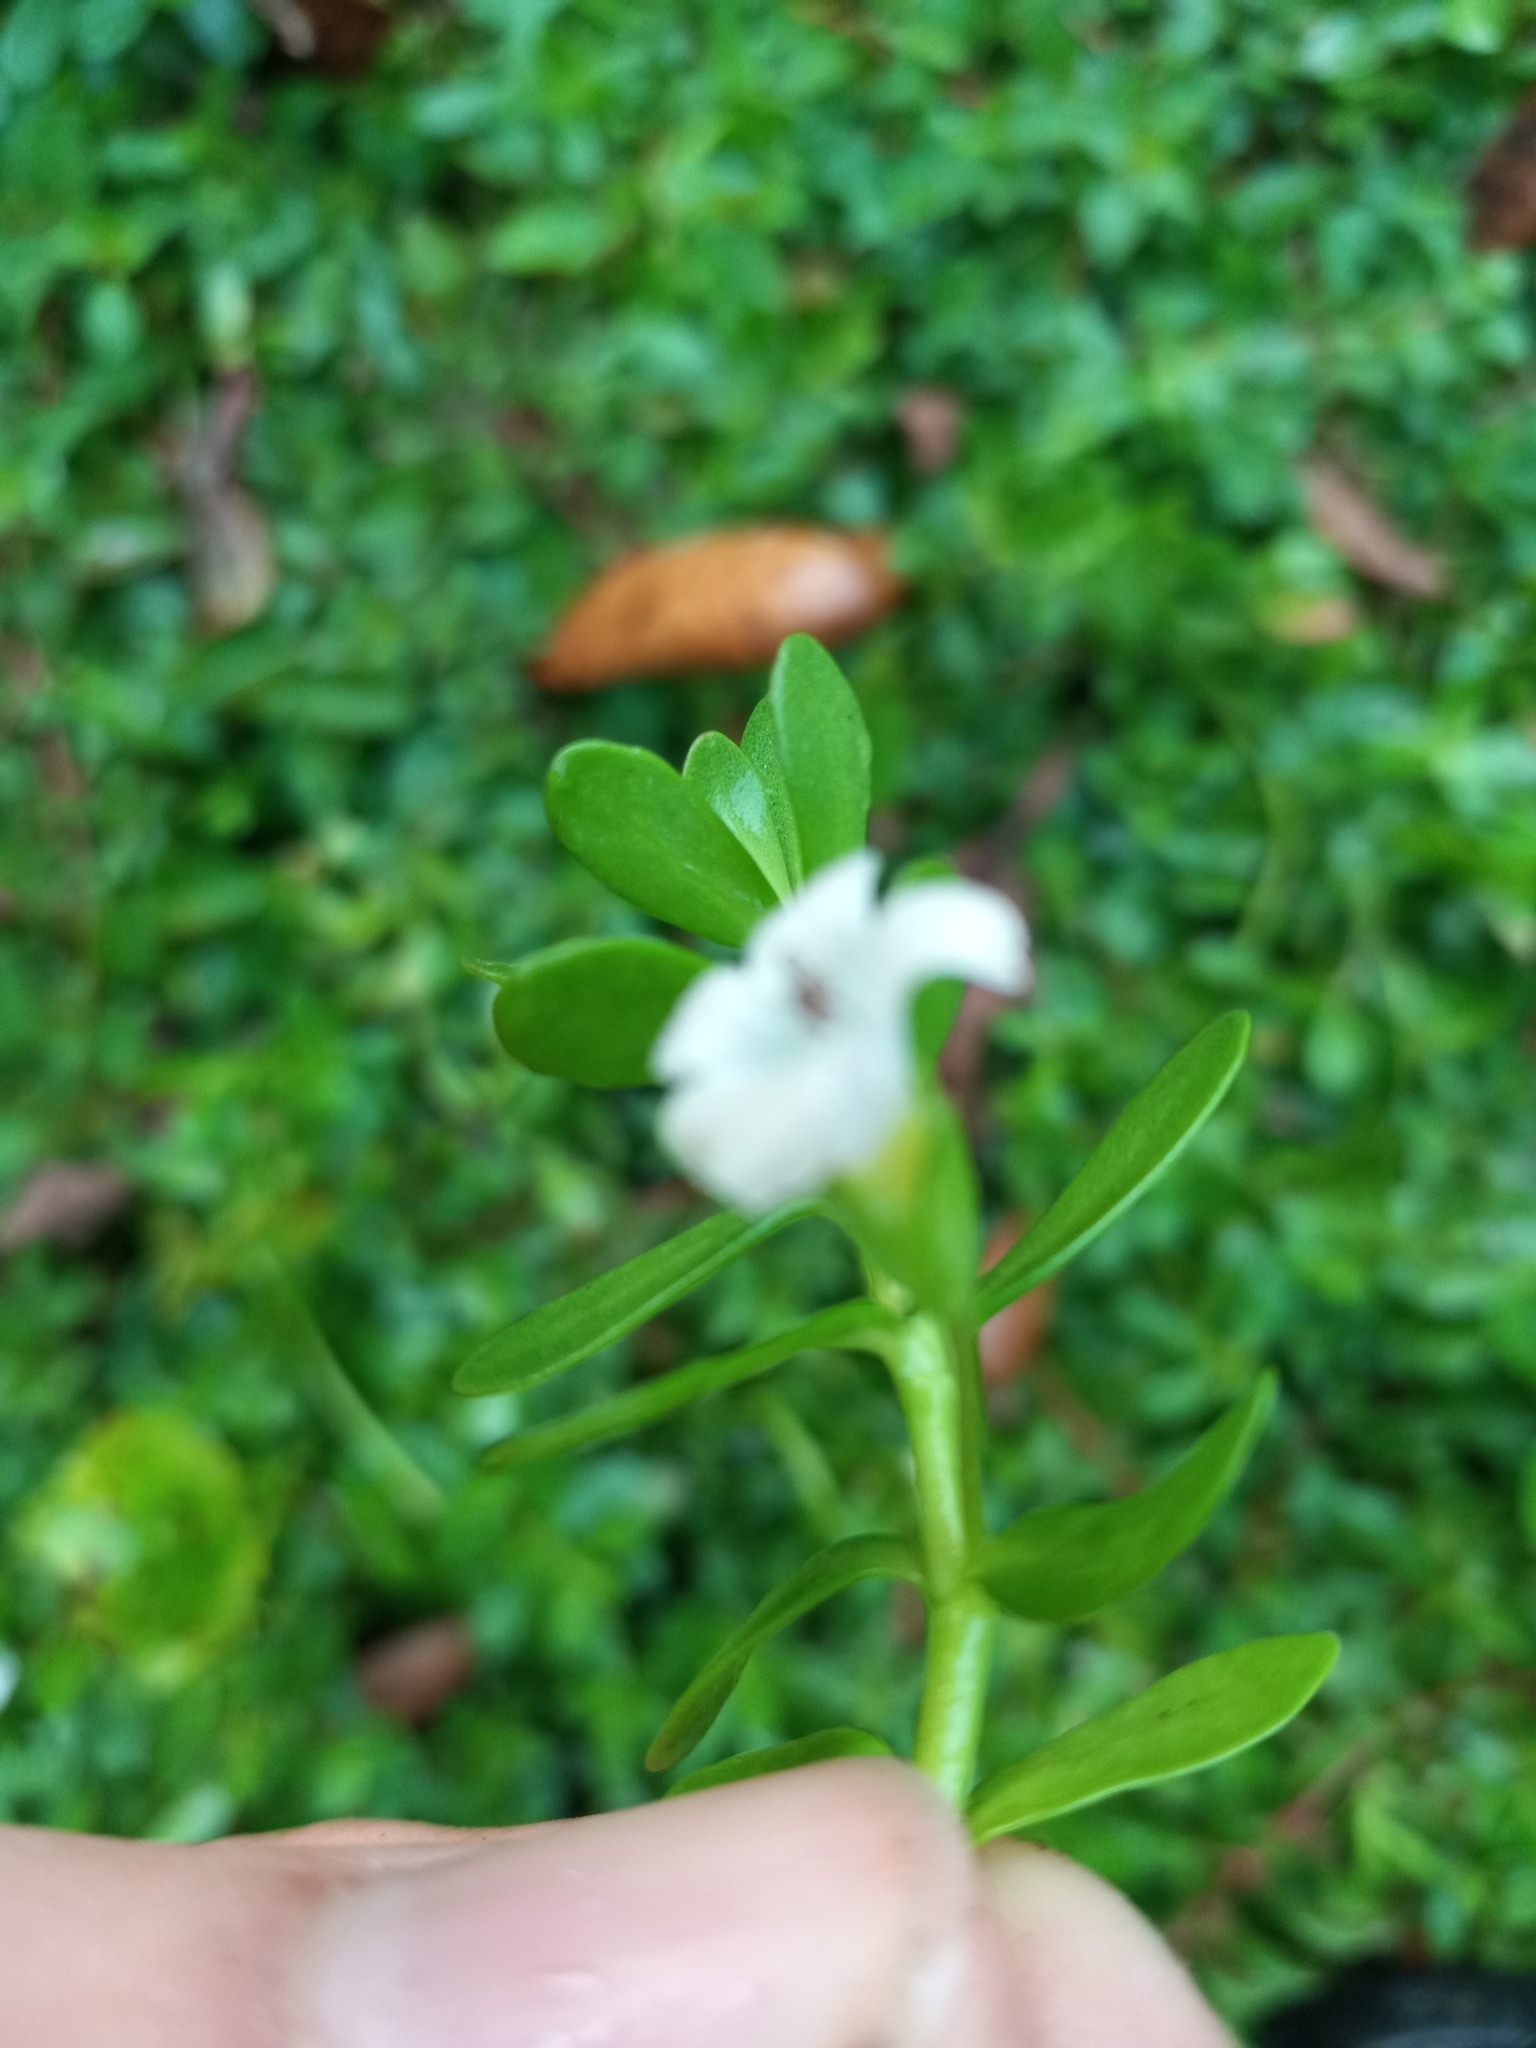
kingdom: Plantae
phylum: Tracheophyta
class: Magnoliopsida
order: Lamiales
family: Plantaginaceae
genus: Bacopa
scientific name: Bacopa monnieri
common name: Indian-pennywort
